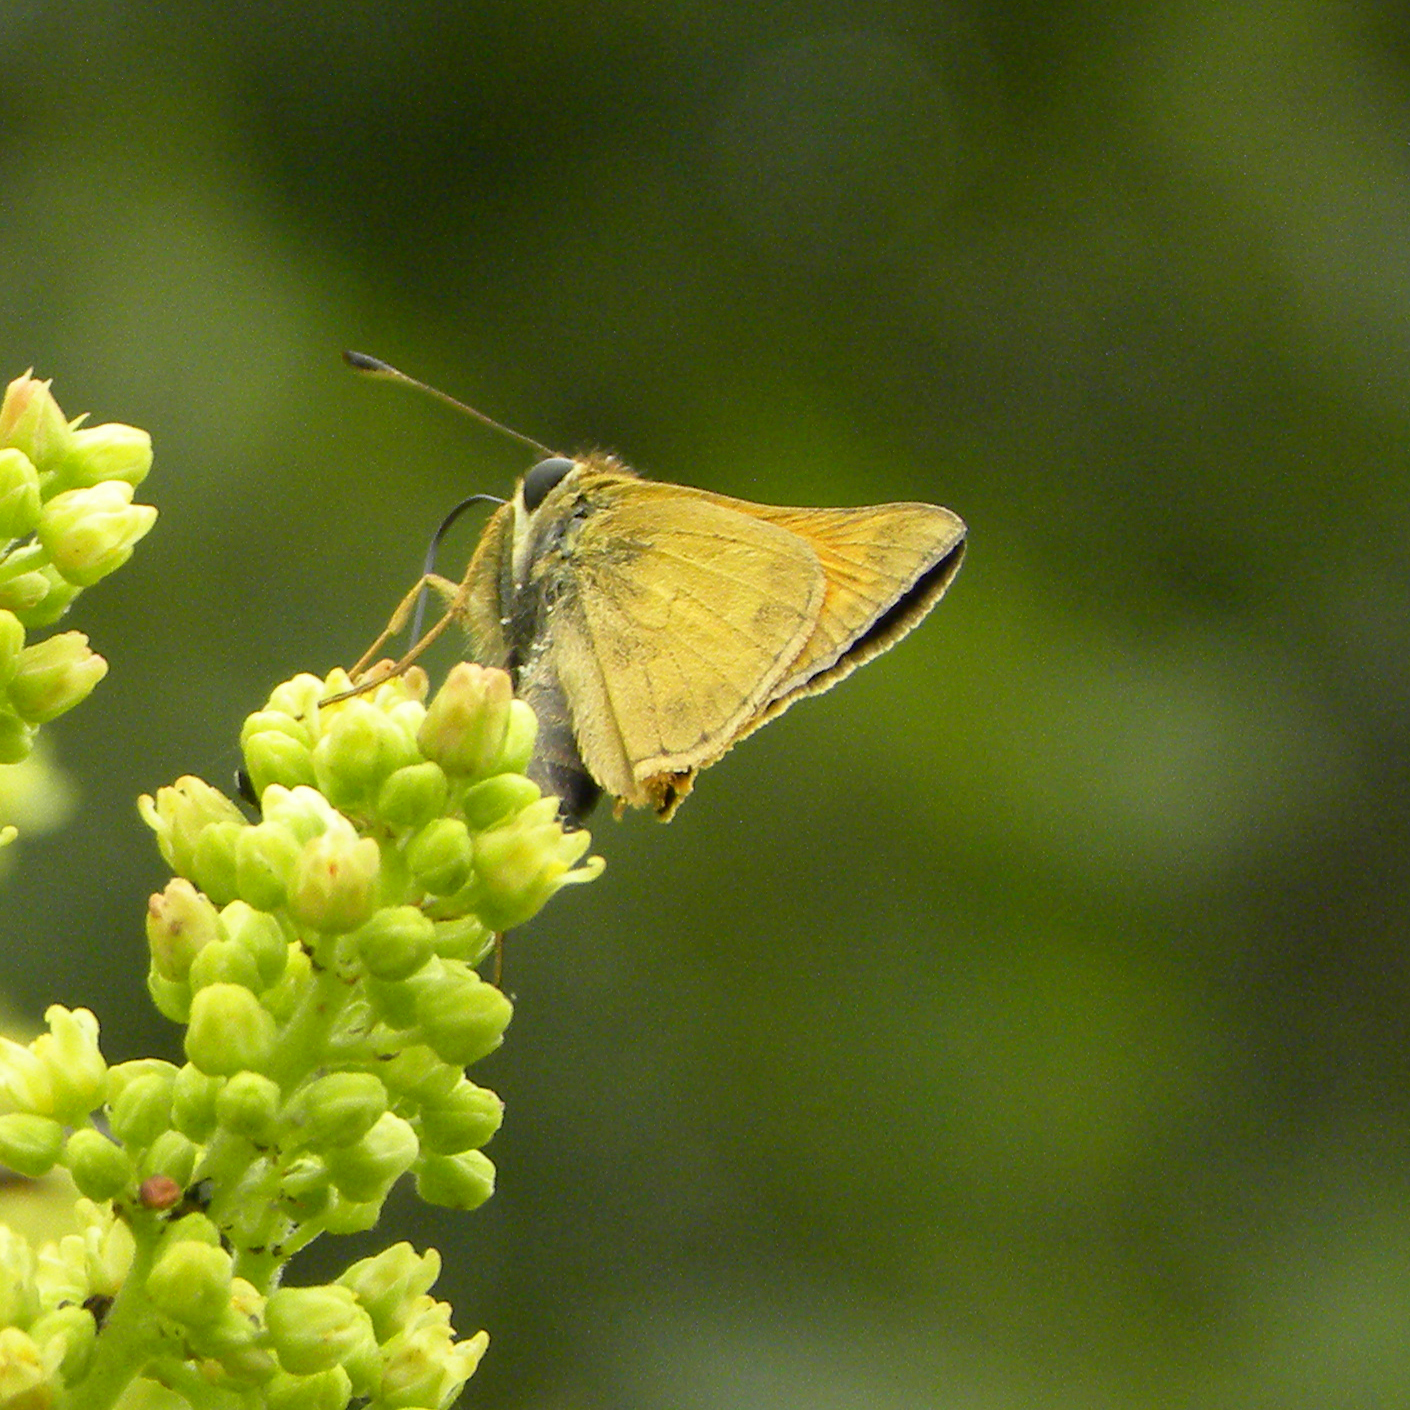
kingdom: Animalia
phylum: Arthropoda
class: Insecta
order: Lepidoptera
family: Hesperiidae
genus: Atalopedes
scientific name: Atalopedes
